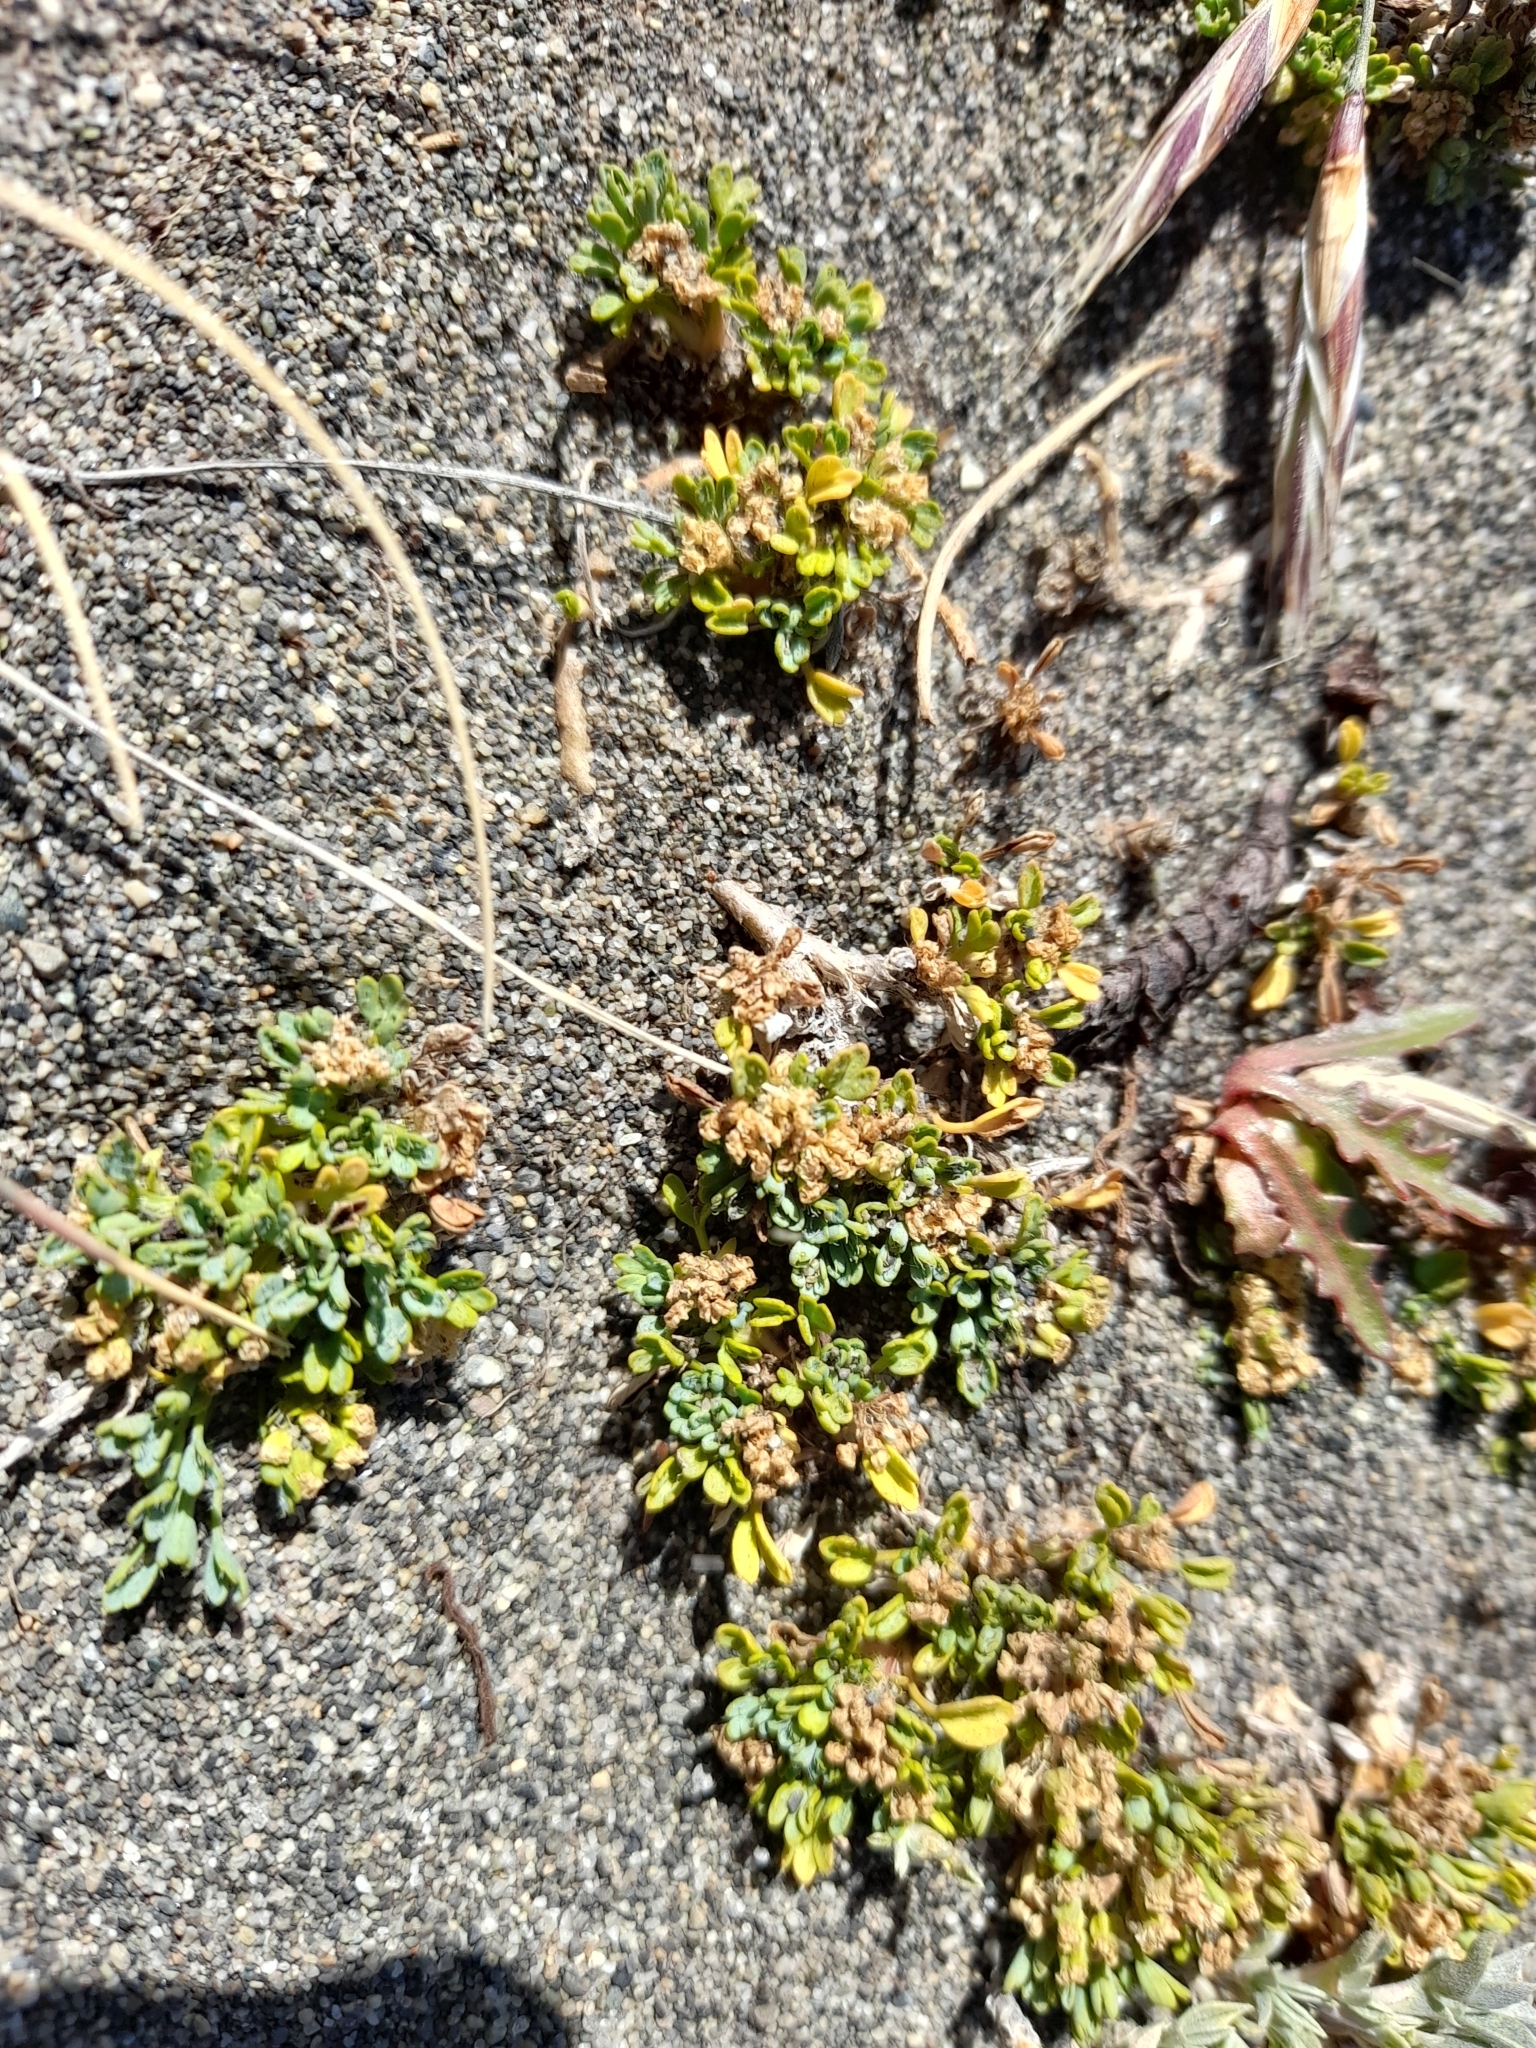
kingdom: Plantae
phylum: Tracheophyta
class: Magnoliopsida
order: Apiales
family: Apiaceae
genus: Azorella
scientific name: Azorella fuegiana
